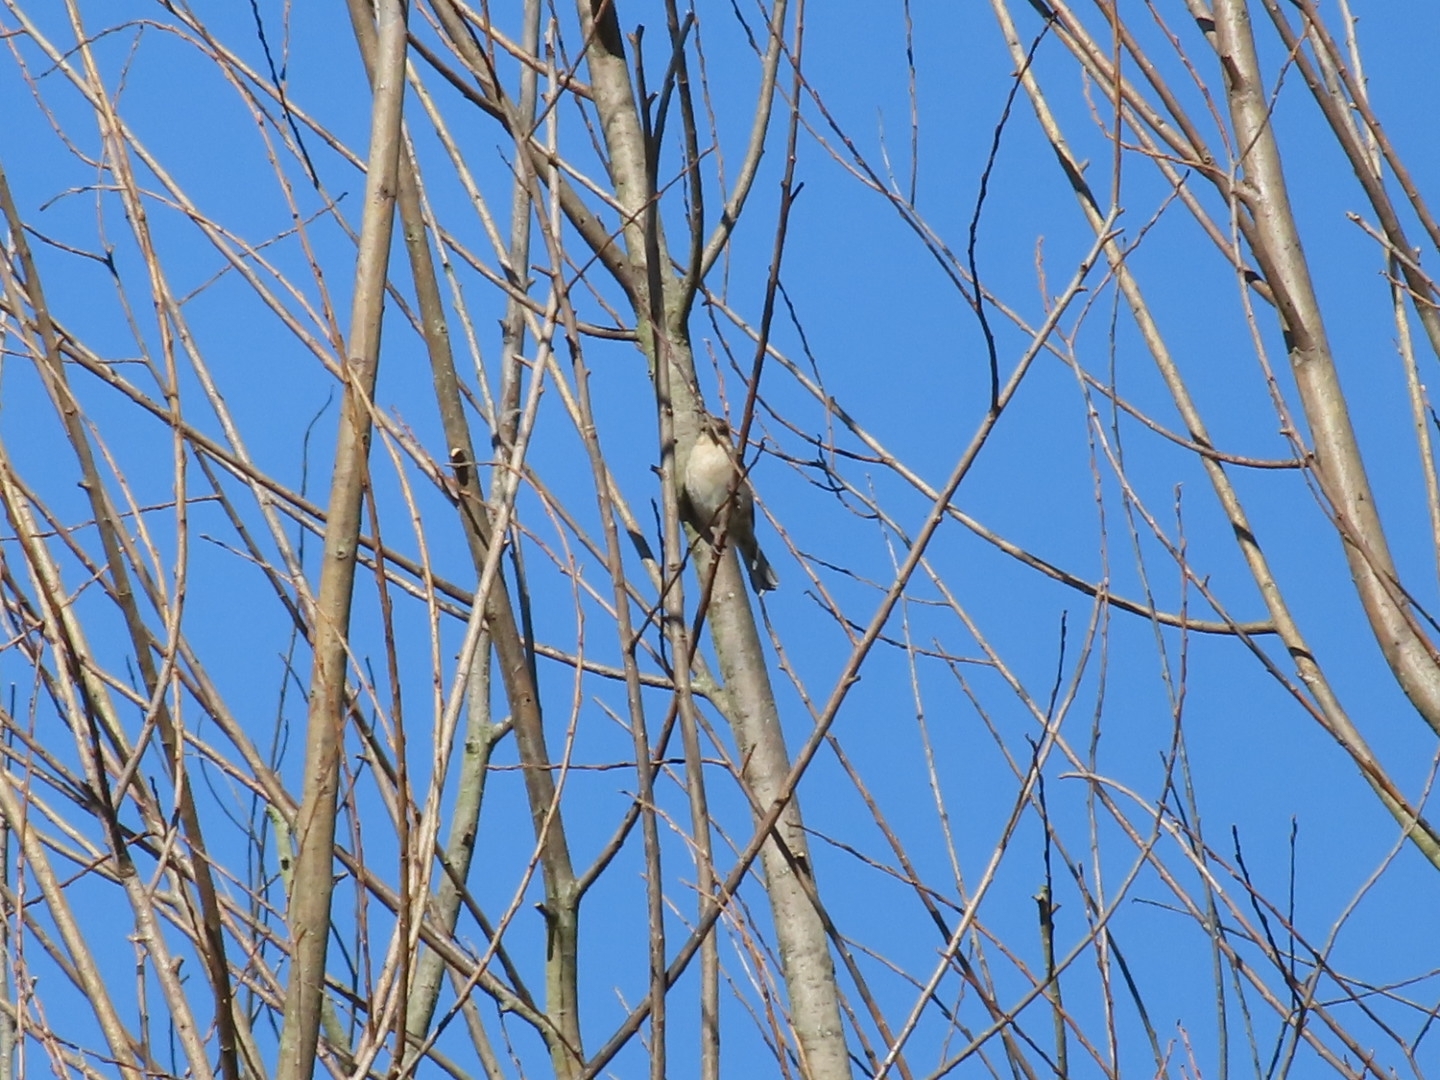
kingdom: Animalia
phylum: Chordata
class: Aves
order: Passeriformes
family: Fringillidae
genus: Fringilla
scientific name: Fringilla coelebs
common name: Common chaffinch
